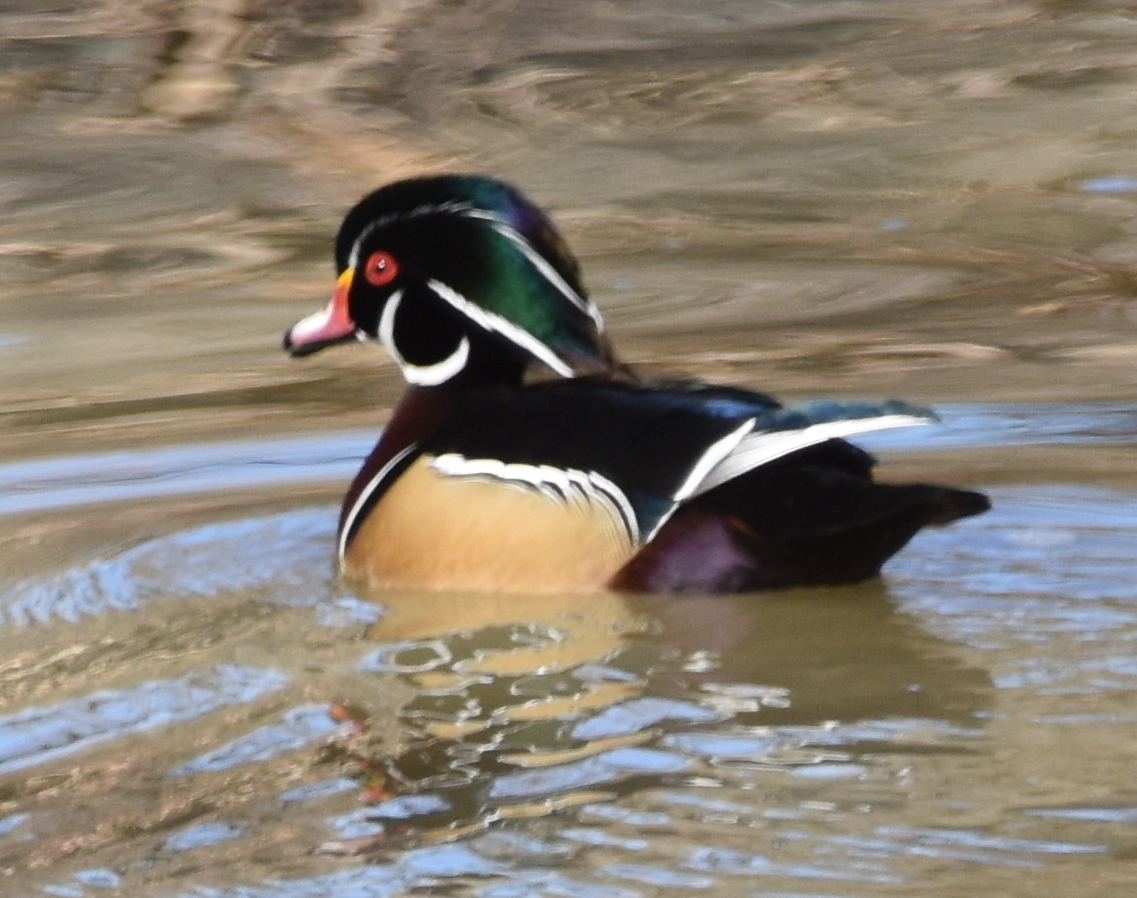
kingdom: Animalia
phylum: Chordata
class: Aves
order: Anseriformes
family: Anatidae
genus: Aix
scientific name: Aix sponsa
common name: Wood duck
